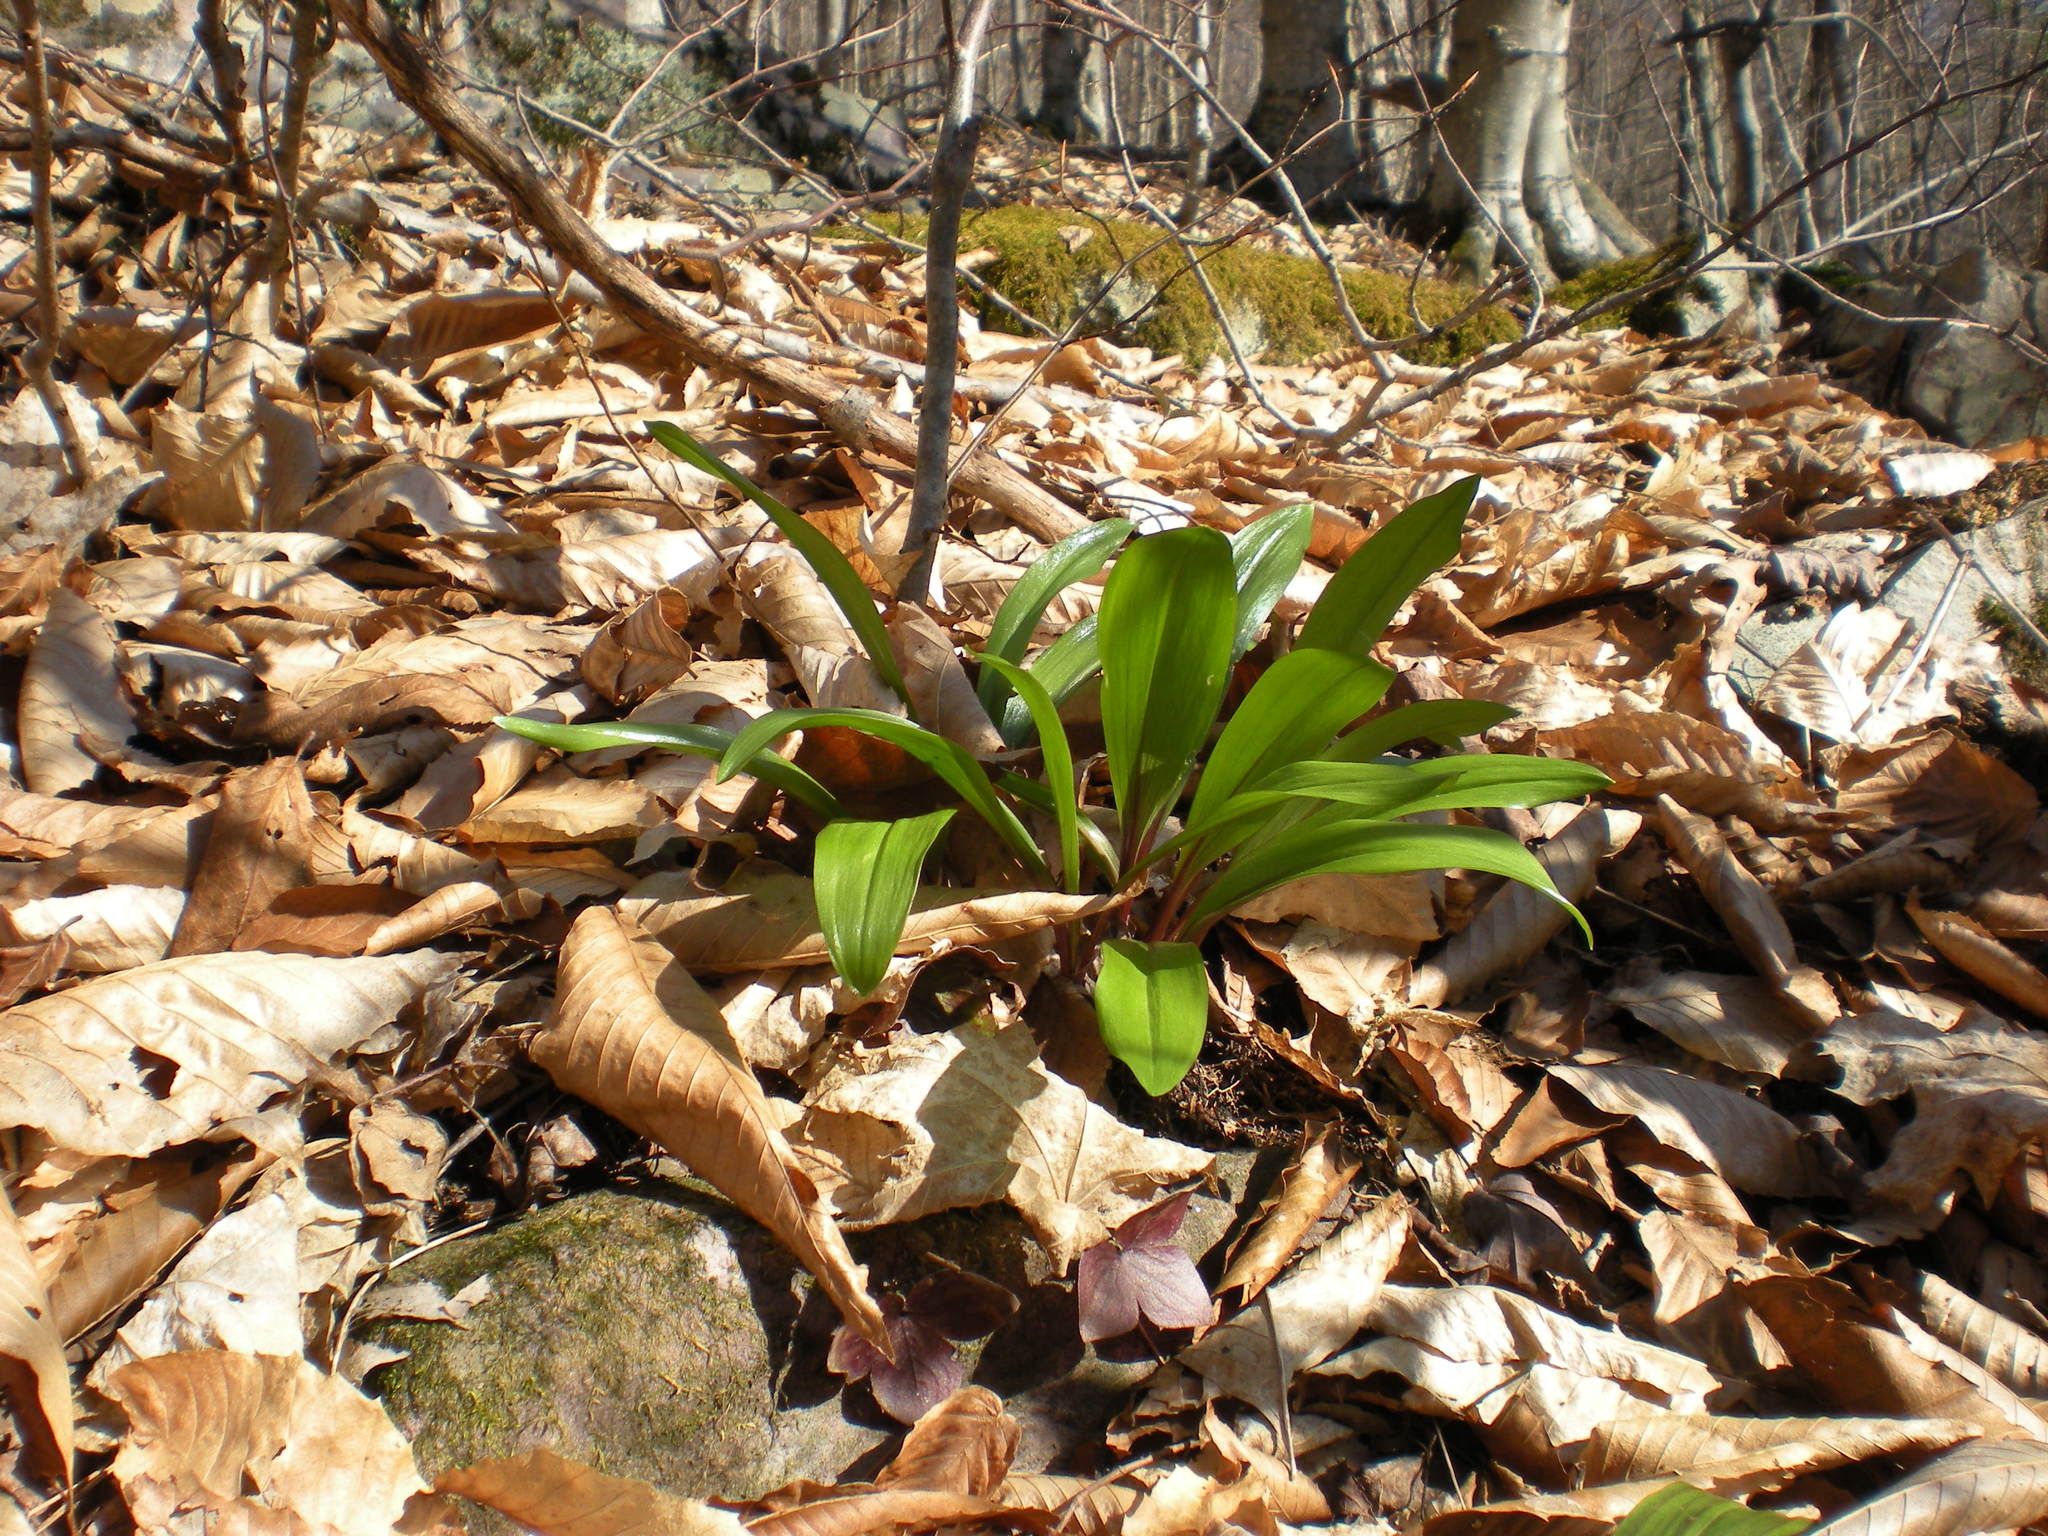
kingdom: Plantae
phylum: Tracheophyta
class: Liliopsida
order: Asparagales
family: Amaryllidaceae
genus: Allium
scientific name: Allium tricoccum
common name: Ramp
